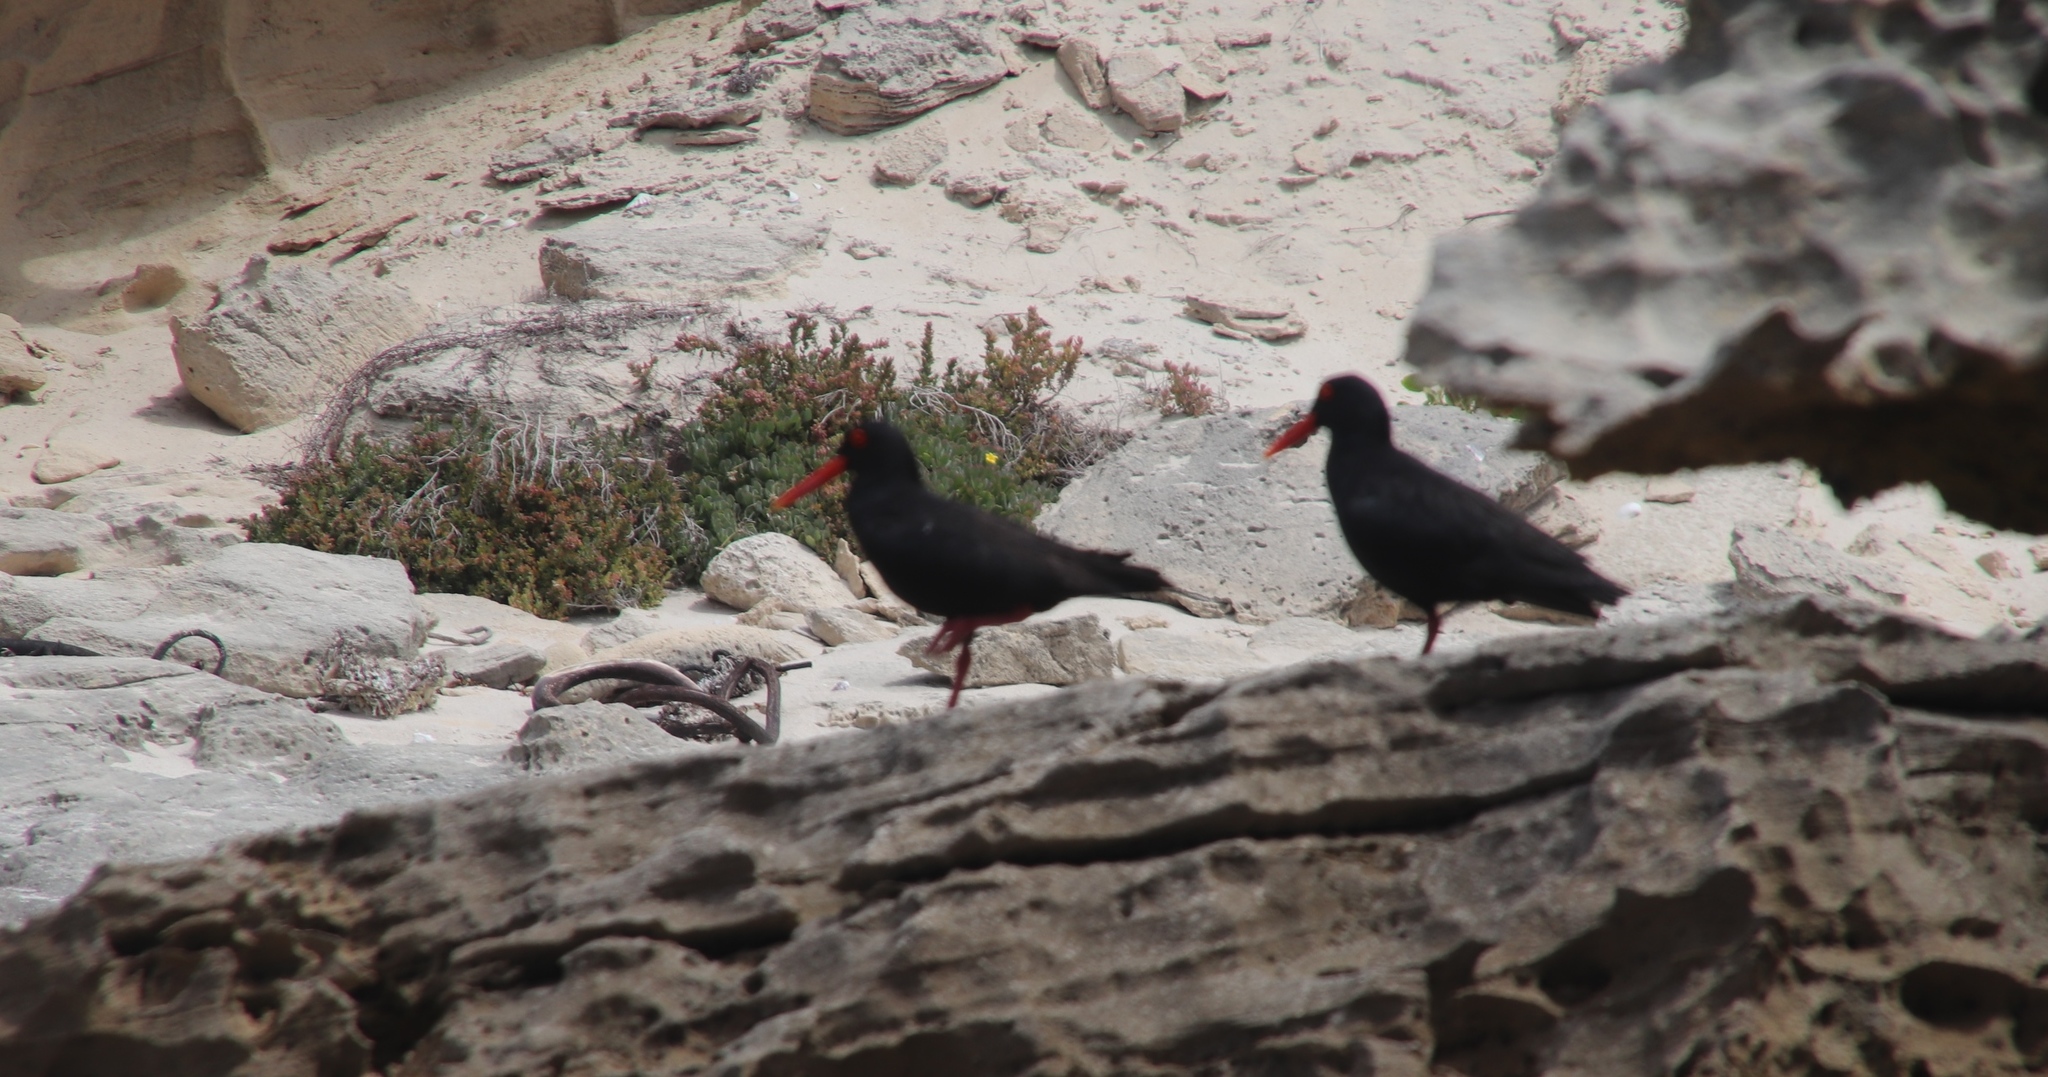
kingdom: Animalia
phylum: Chordata
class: Aves
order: Charadriiformes
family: Haematopodidae
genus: Haematopus
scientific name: Haematopus moquini
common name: African oystercatcher
